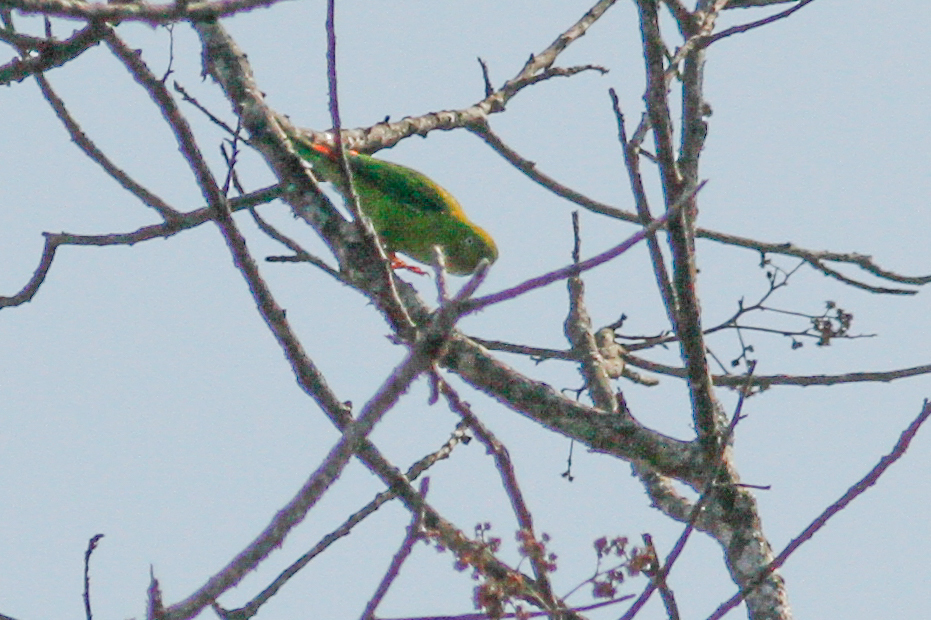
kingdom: Animalia
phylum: Chordata
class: Aves
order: Psittaciformes
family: Psittacidae
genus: Loriculus
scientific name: Loriculus vernalis
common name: Vernal hanging parrot
